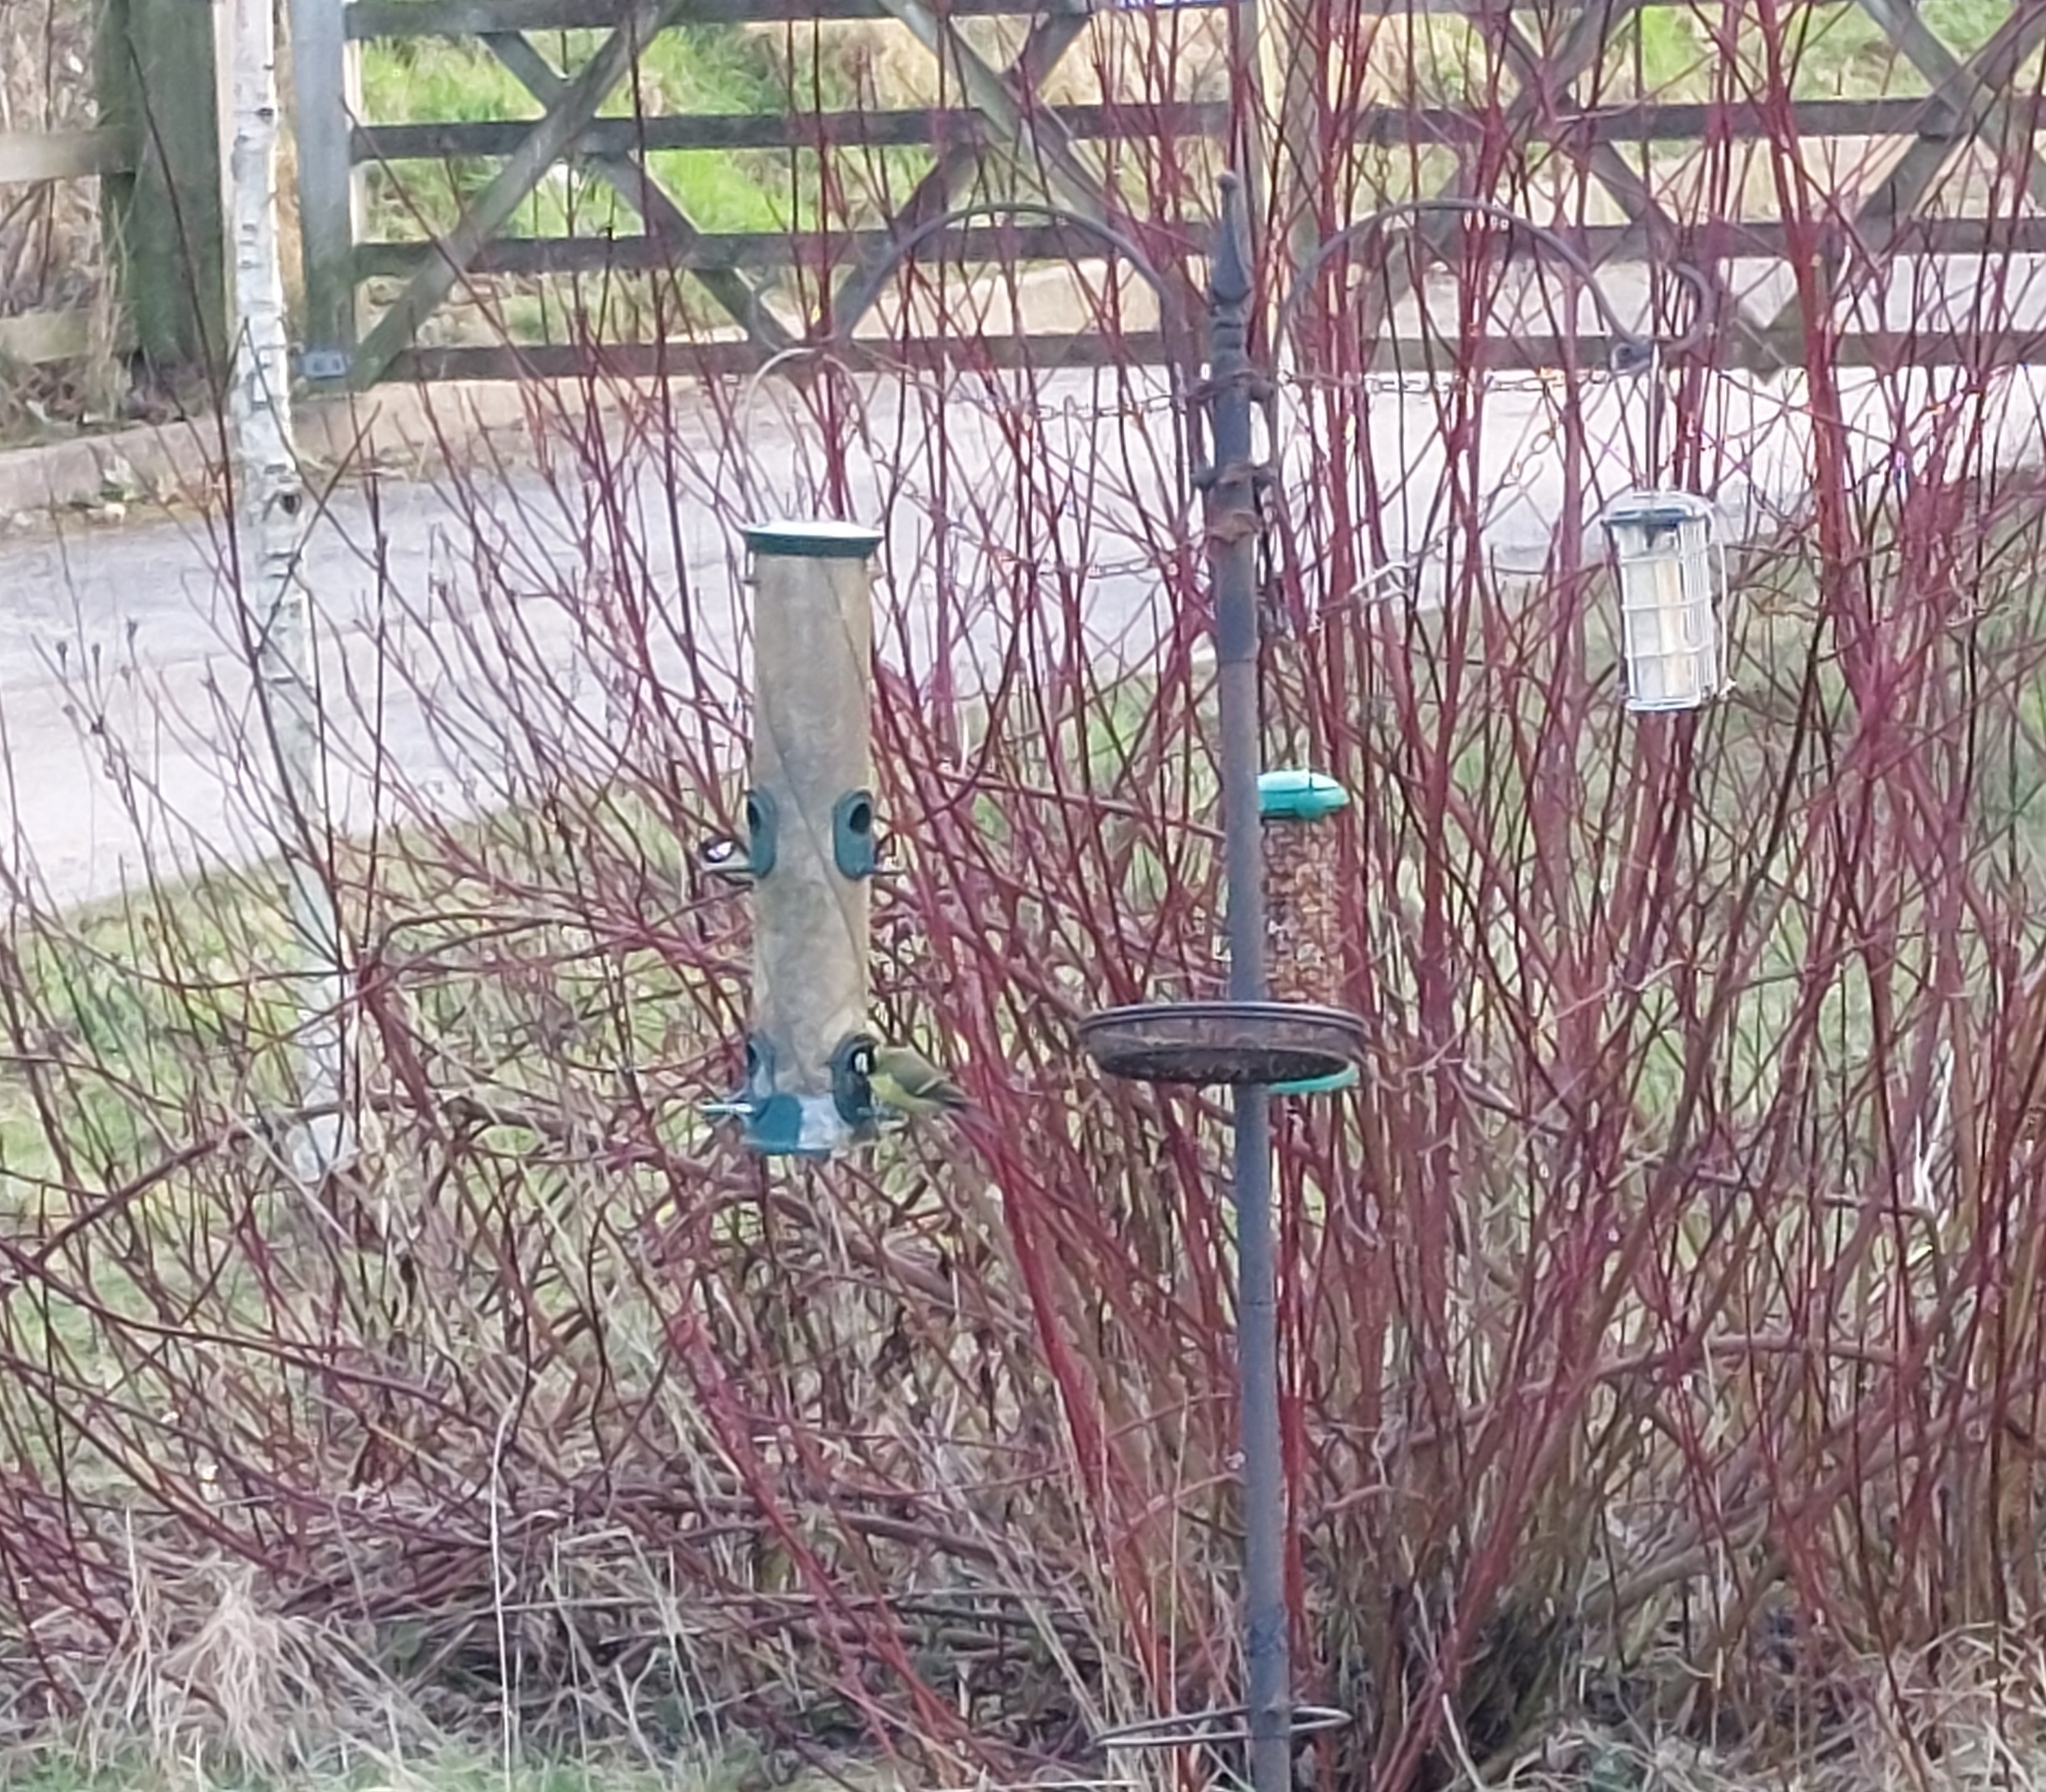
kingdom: Animalia
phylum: Chordata
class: Aves
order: Passeriformes
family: Paridae
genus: Parus
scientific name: Parus major
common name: Great tit
